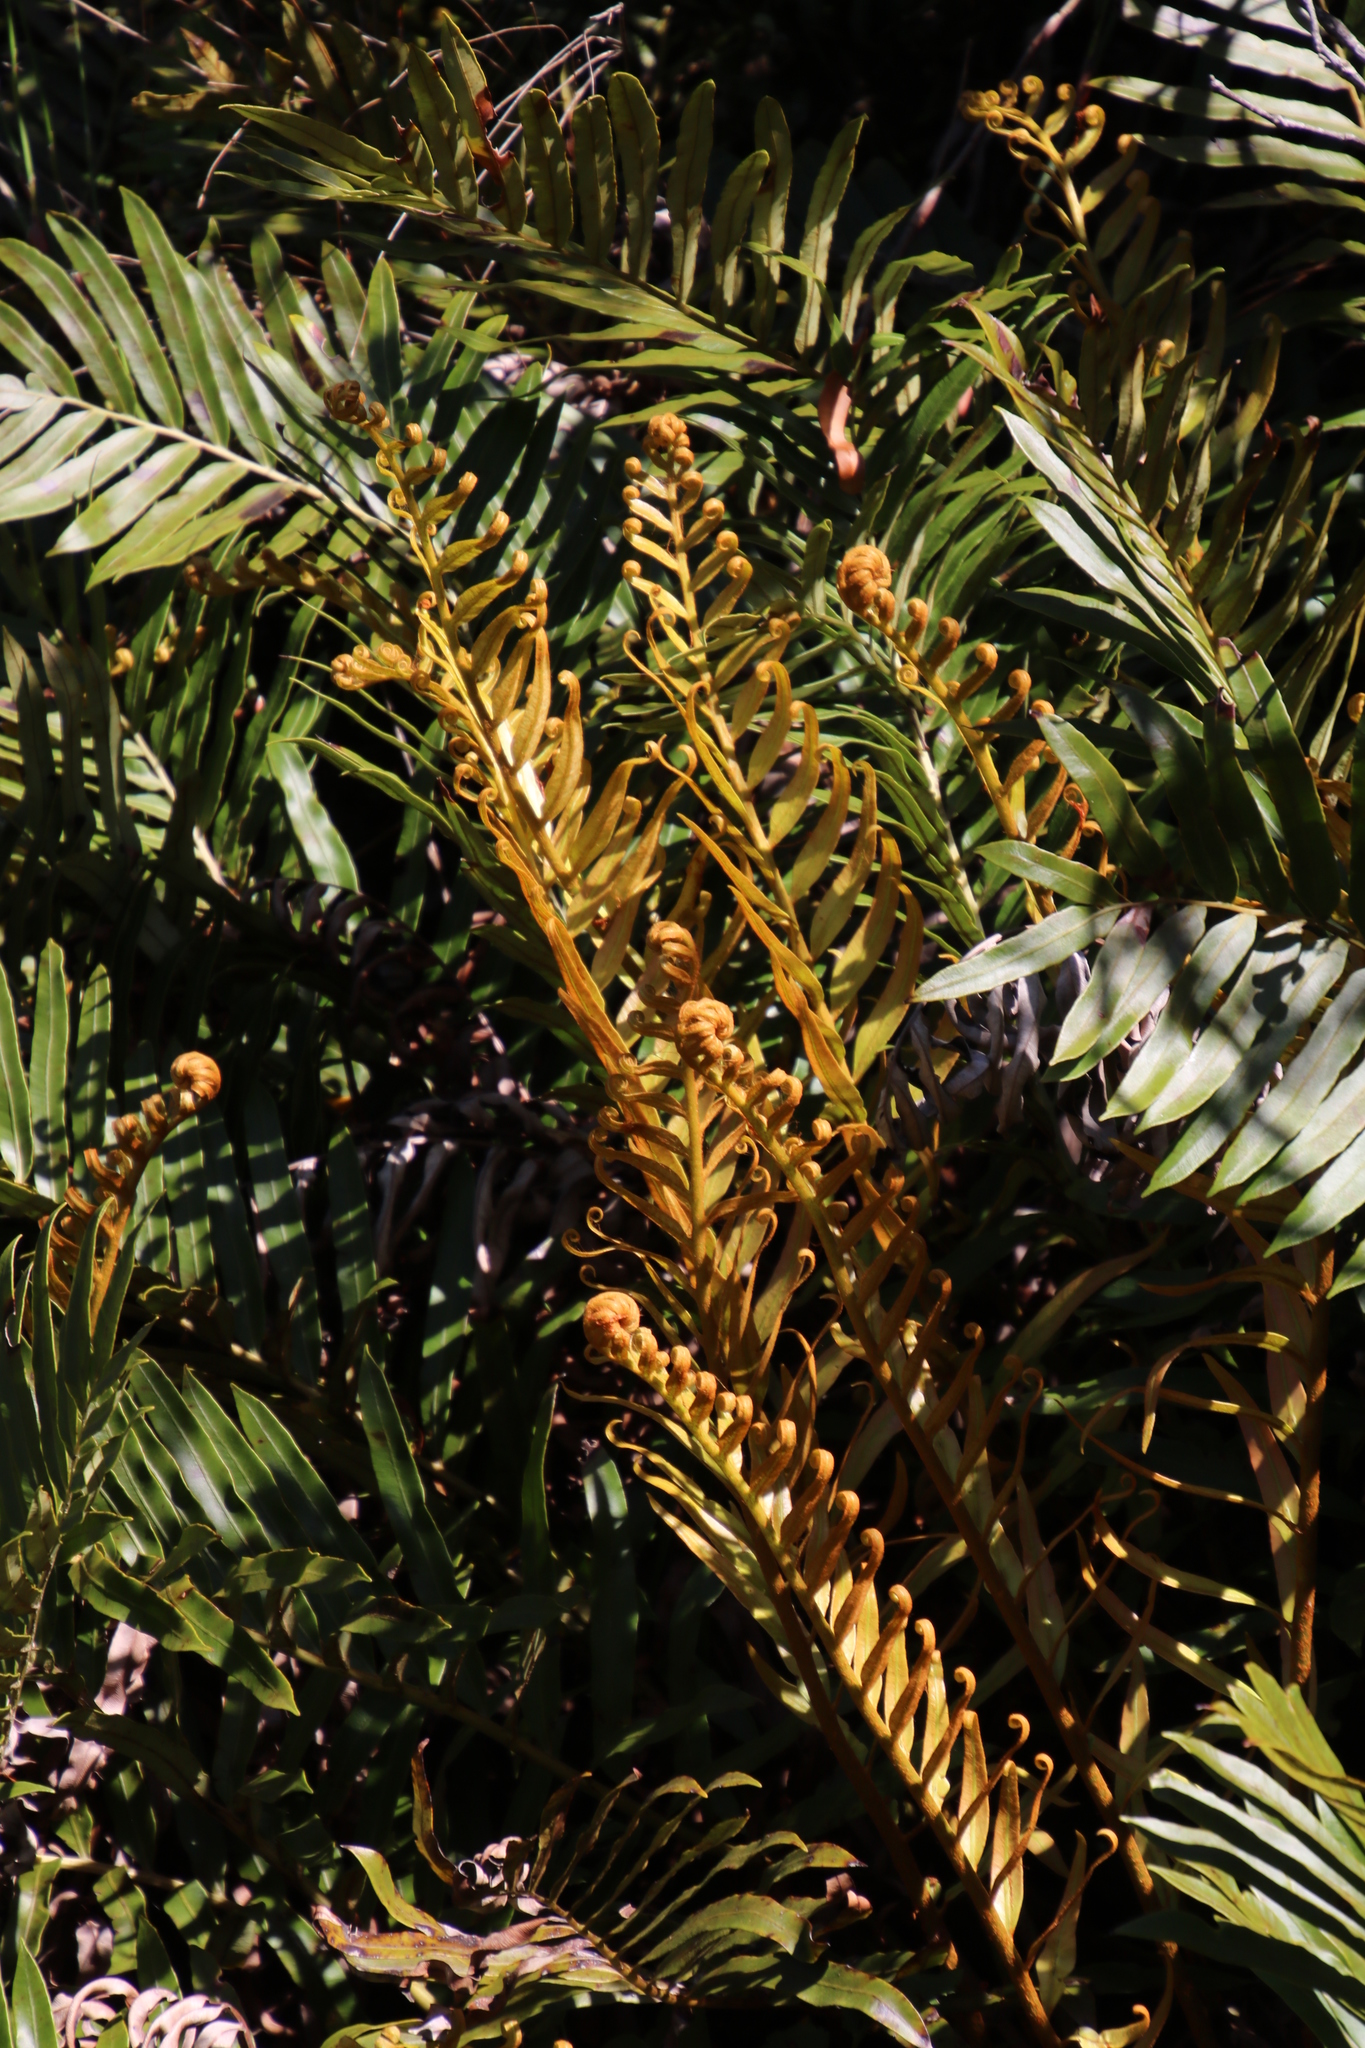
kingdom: Plantae
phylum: Tracheophyta
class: Polypodiopsida
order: Polypodiales
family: Blechnaceae
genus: Lomariocycas
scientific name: Lomariocycas tabularis
